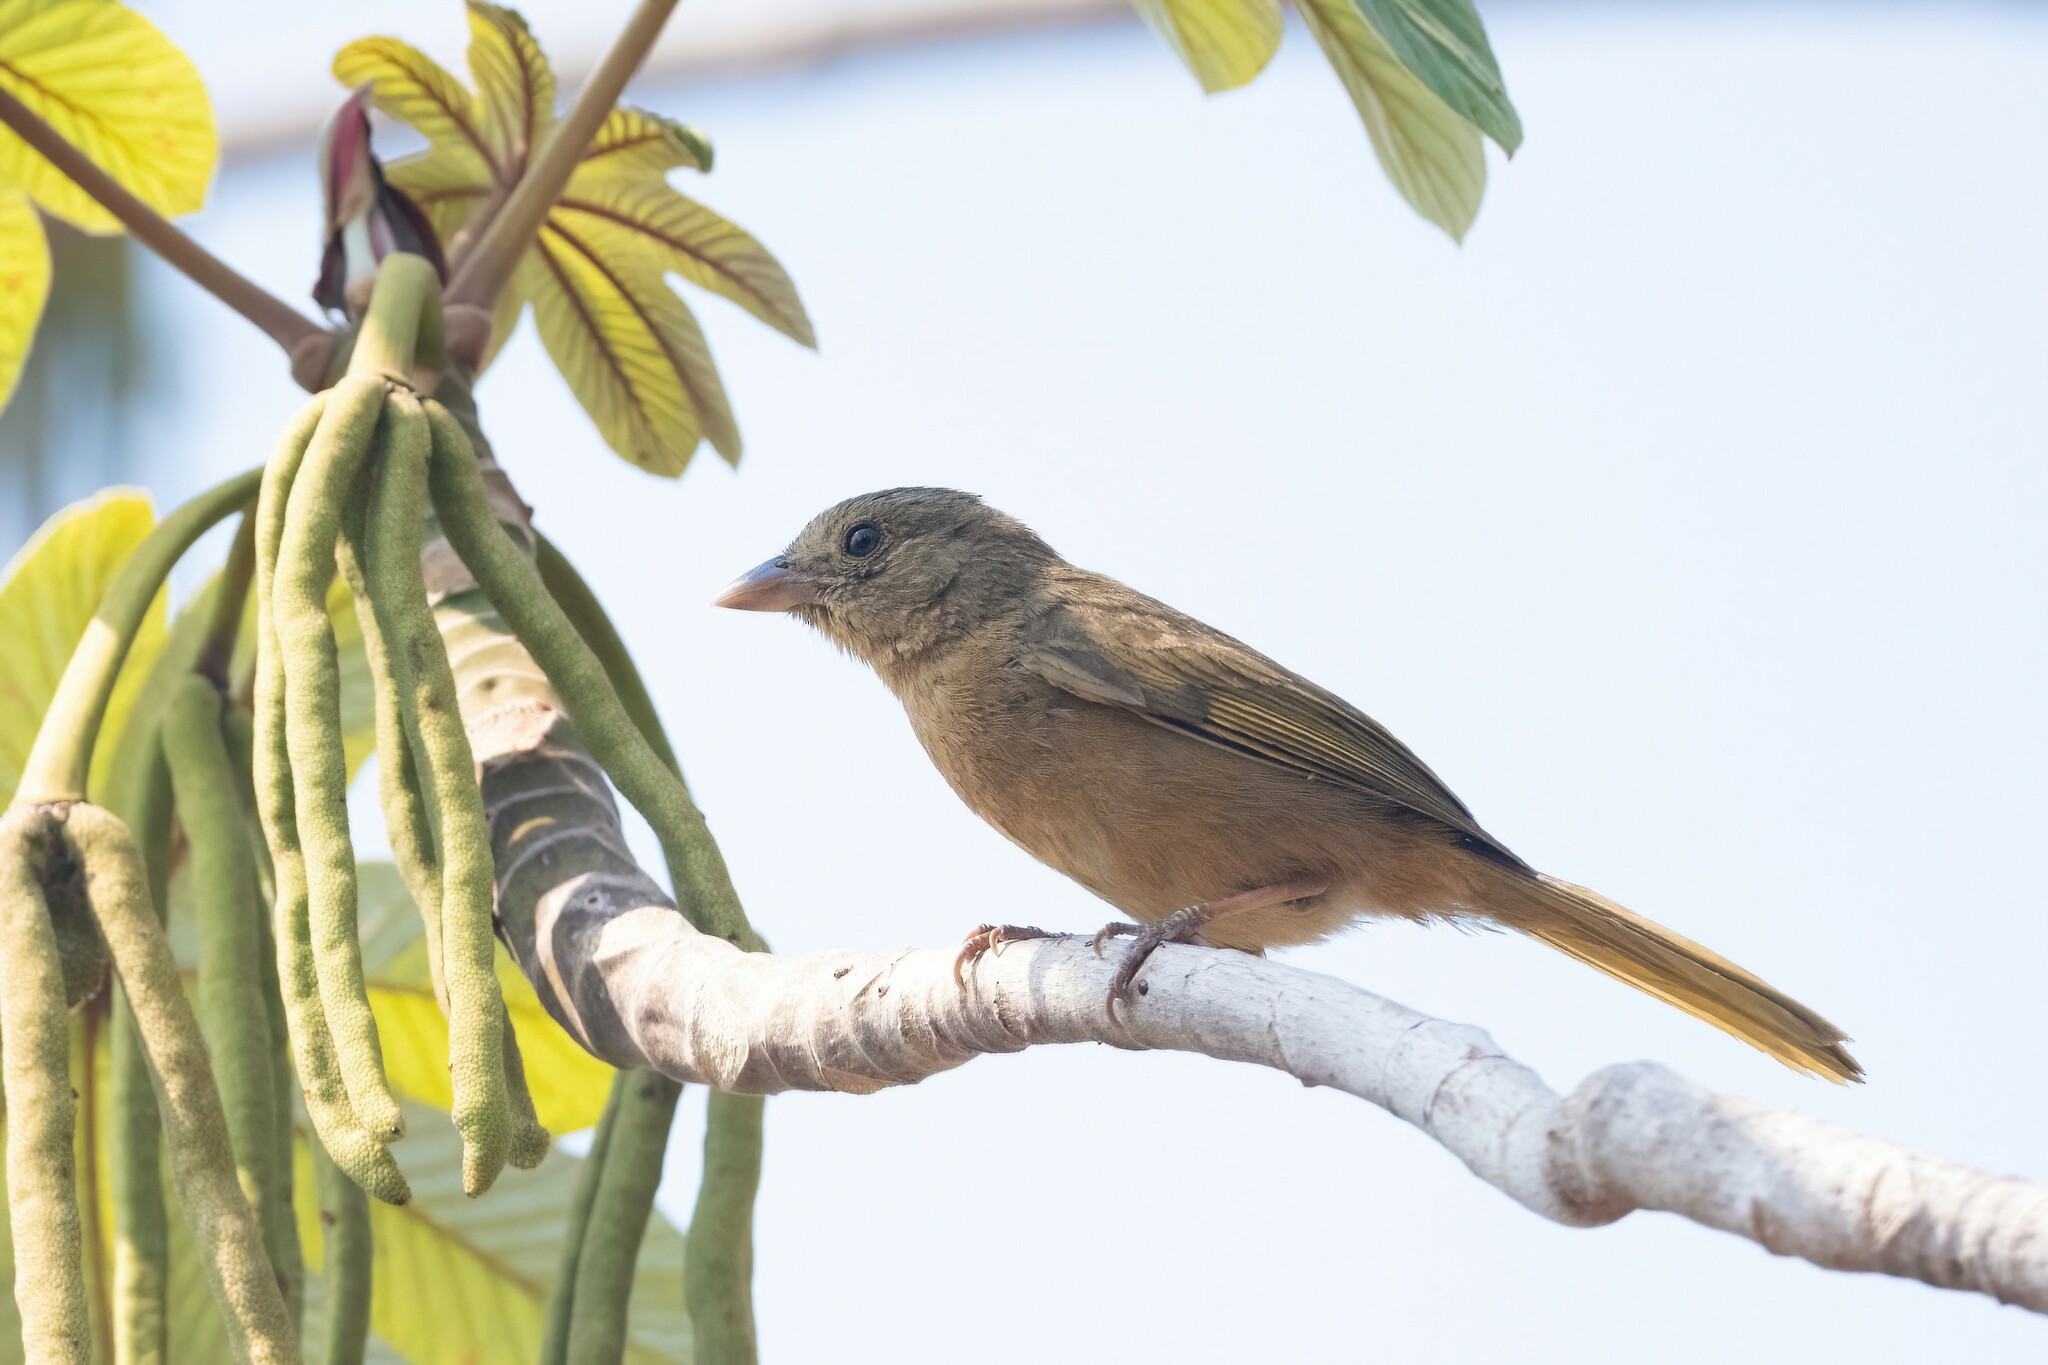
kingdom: Animalia
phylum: Chordata
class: Aves
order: Passeriformes
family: Cardinalidae
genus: Habia
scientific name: Habia rubica
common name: Red-crowned ant-tanager
